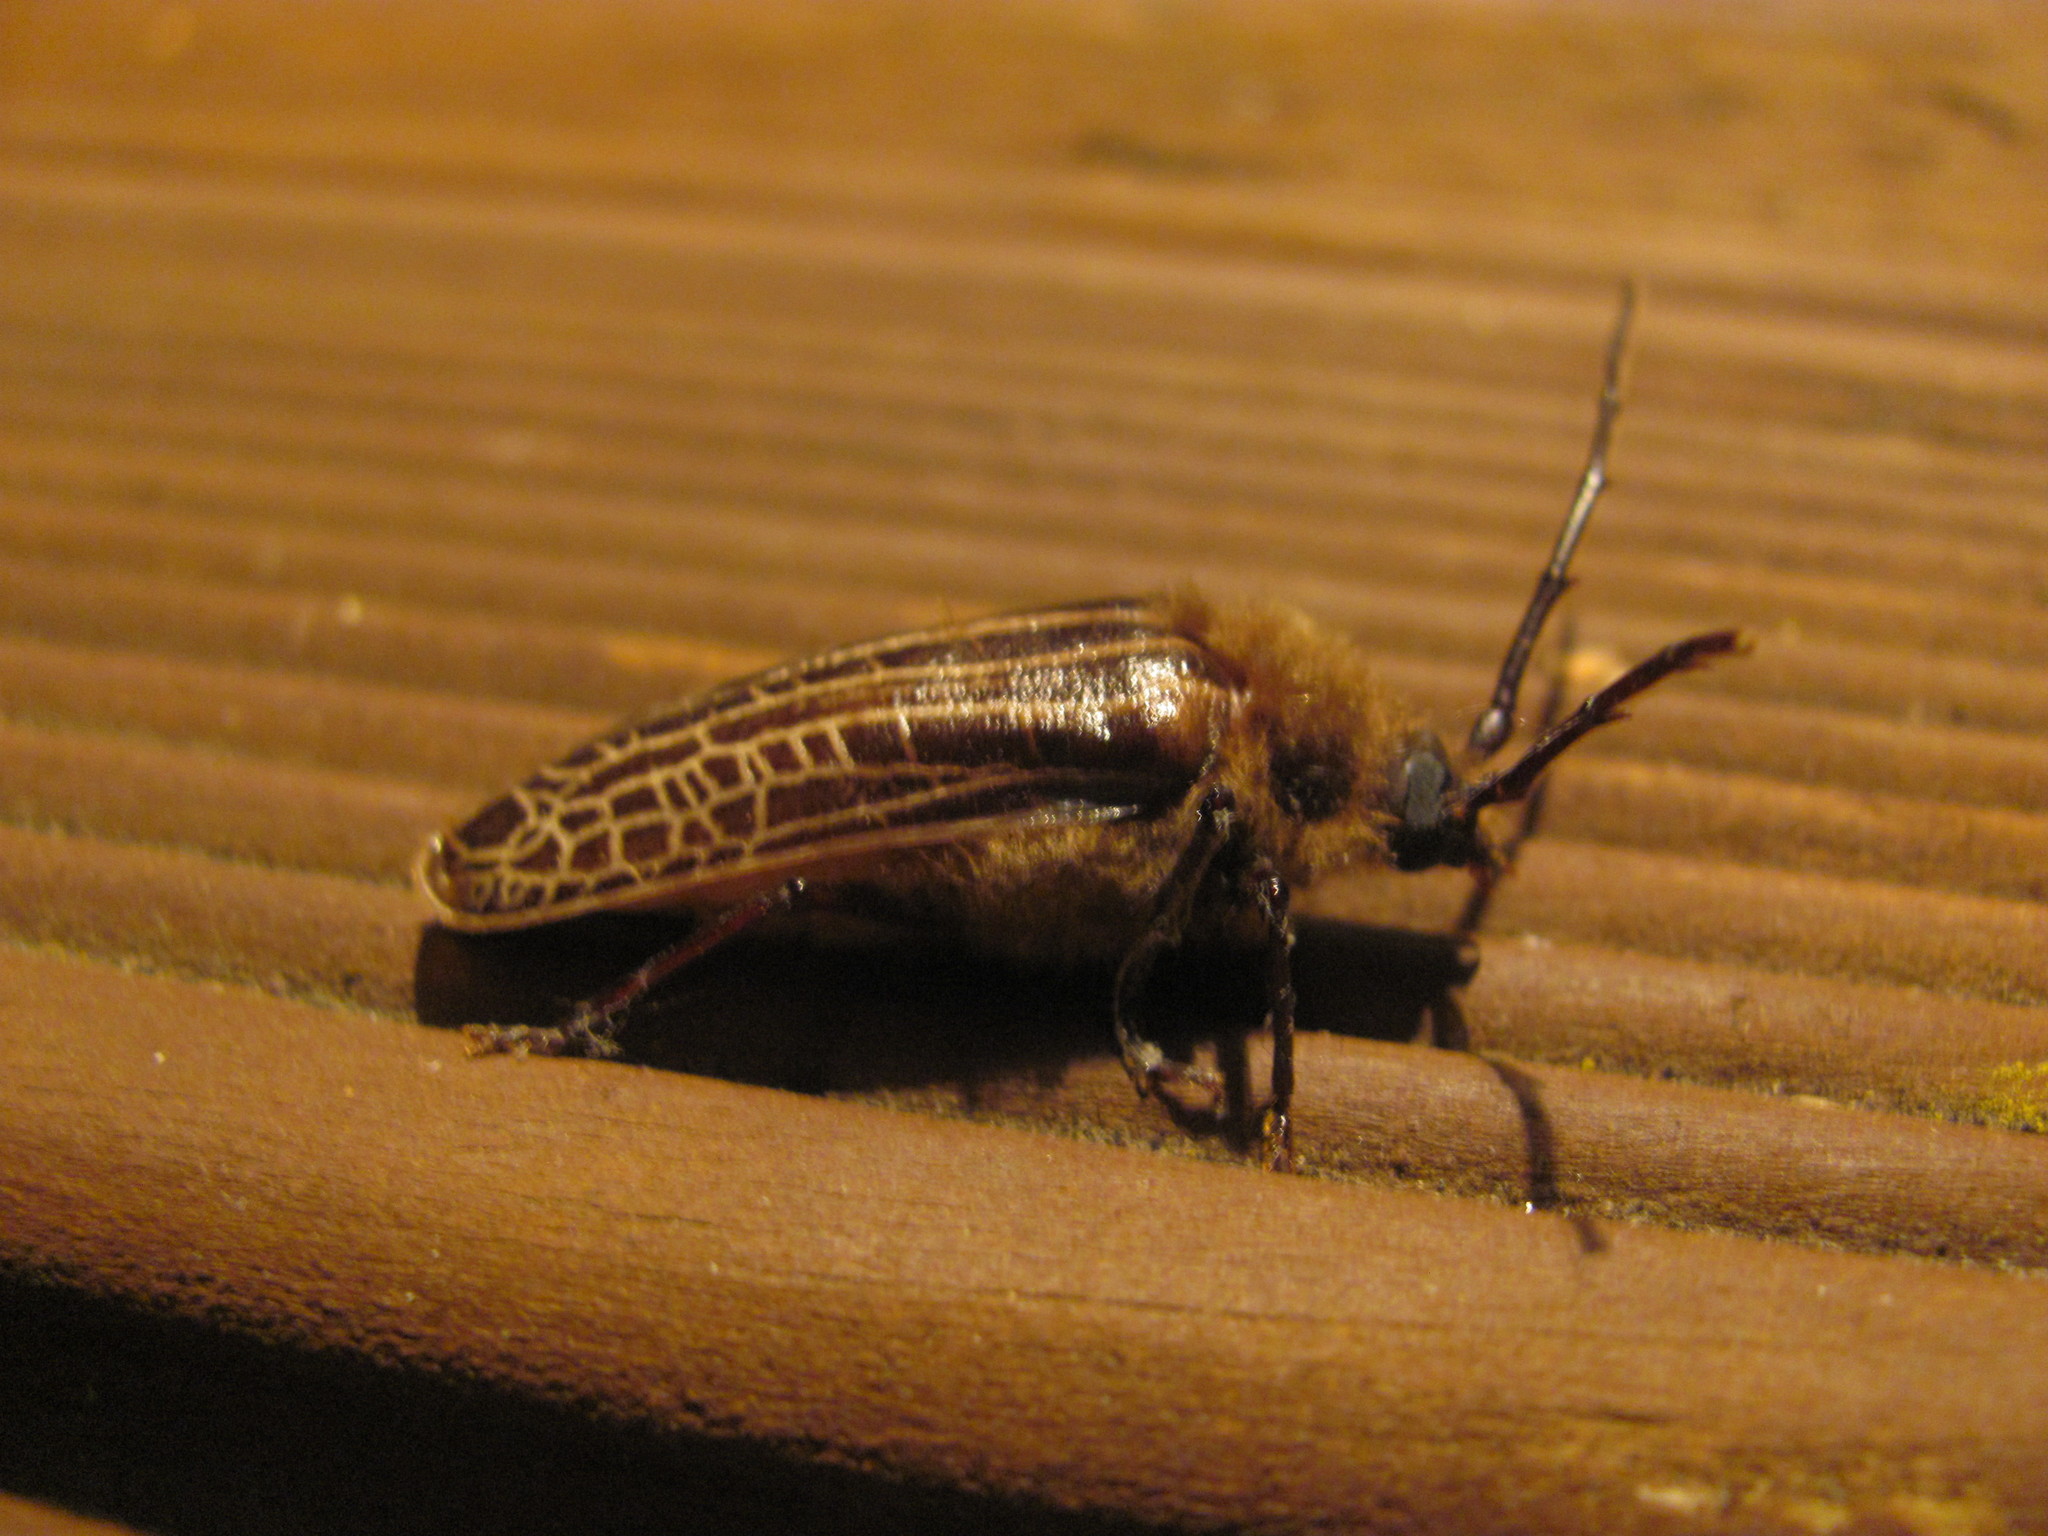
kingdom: Animalia
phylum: Arthropoda
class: Insecta
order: Coleoptera
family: Cerambycidae
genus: Prionoplus
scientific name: Prionoplus reticularis
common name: Huhu beetle
